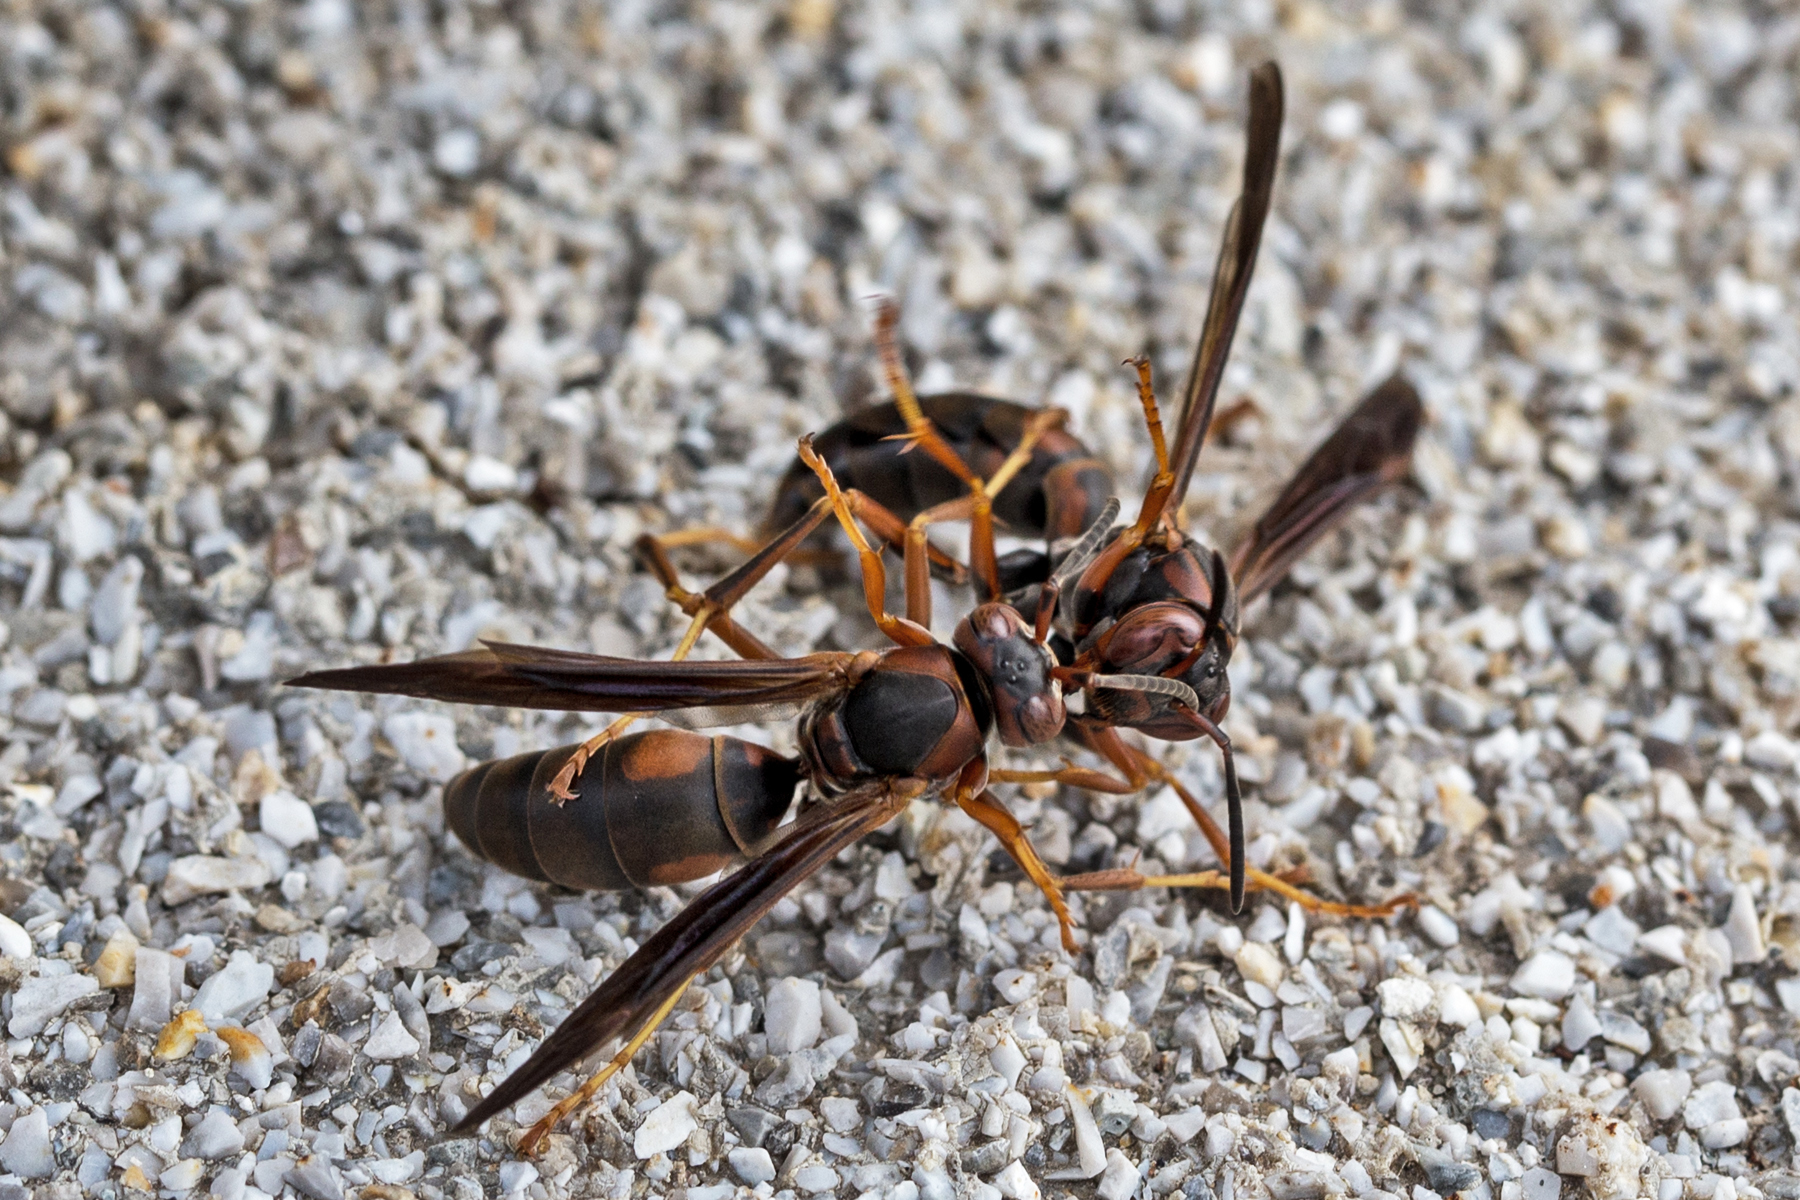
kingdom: Animalia
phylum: Arthropoda
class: Insecta
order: Hymenoptera
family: Eumenidae
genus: Polistes
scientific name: Polistes fuscatus
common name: Dark paper wasp
